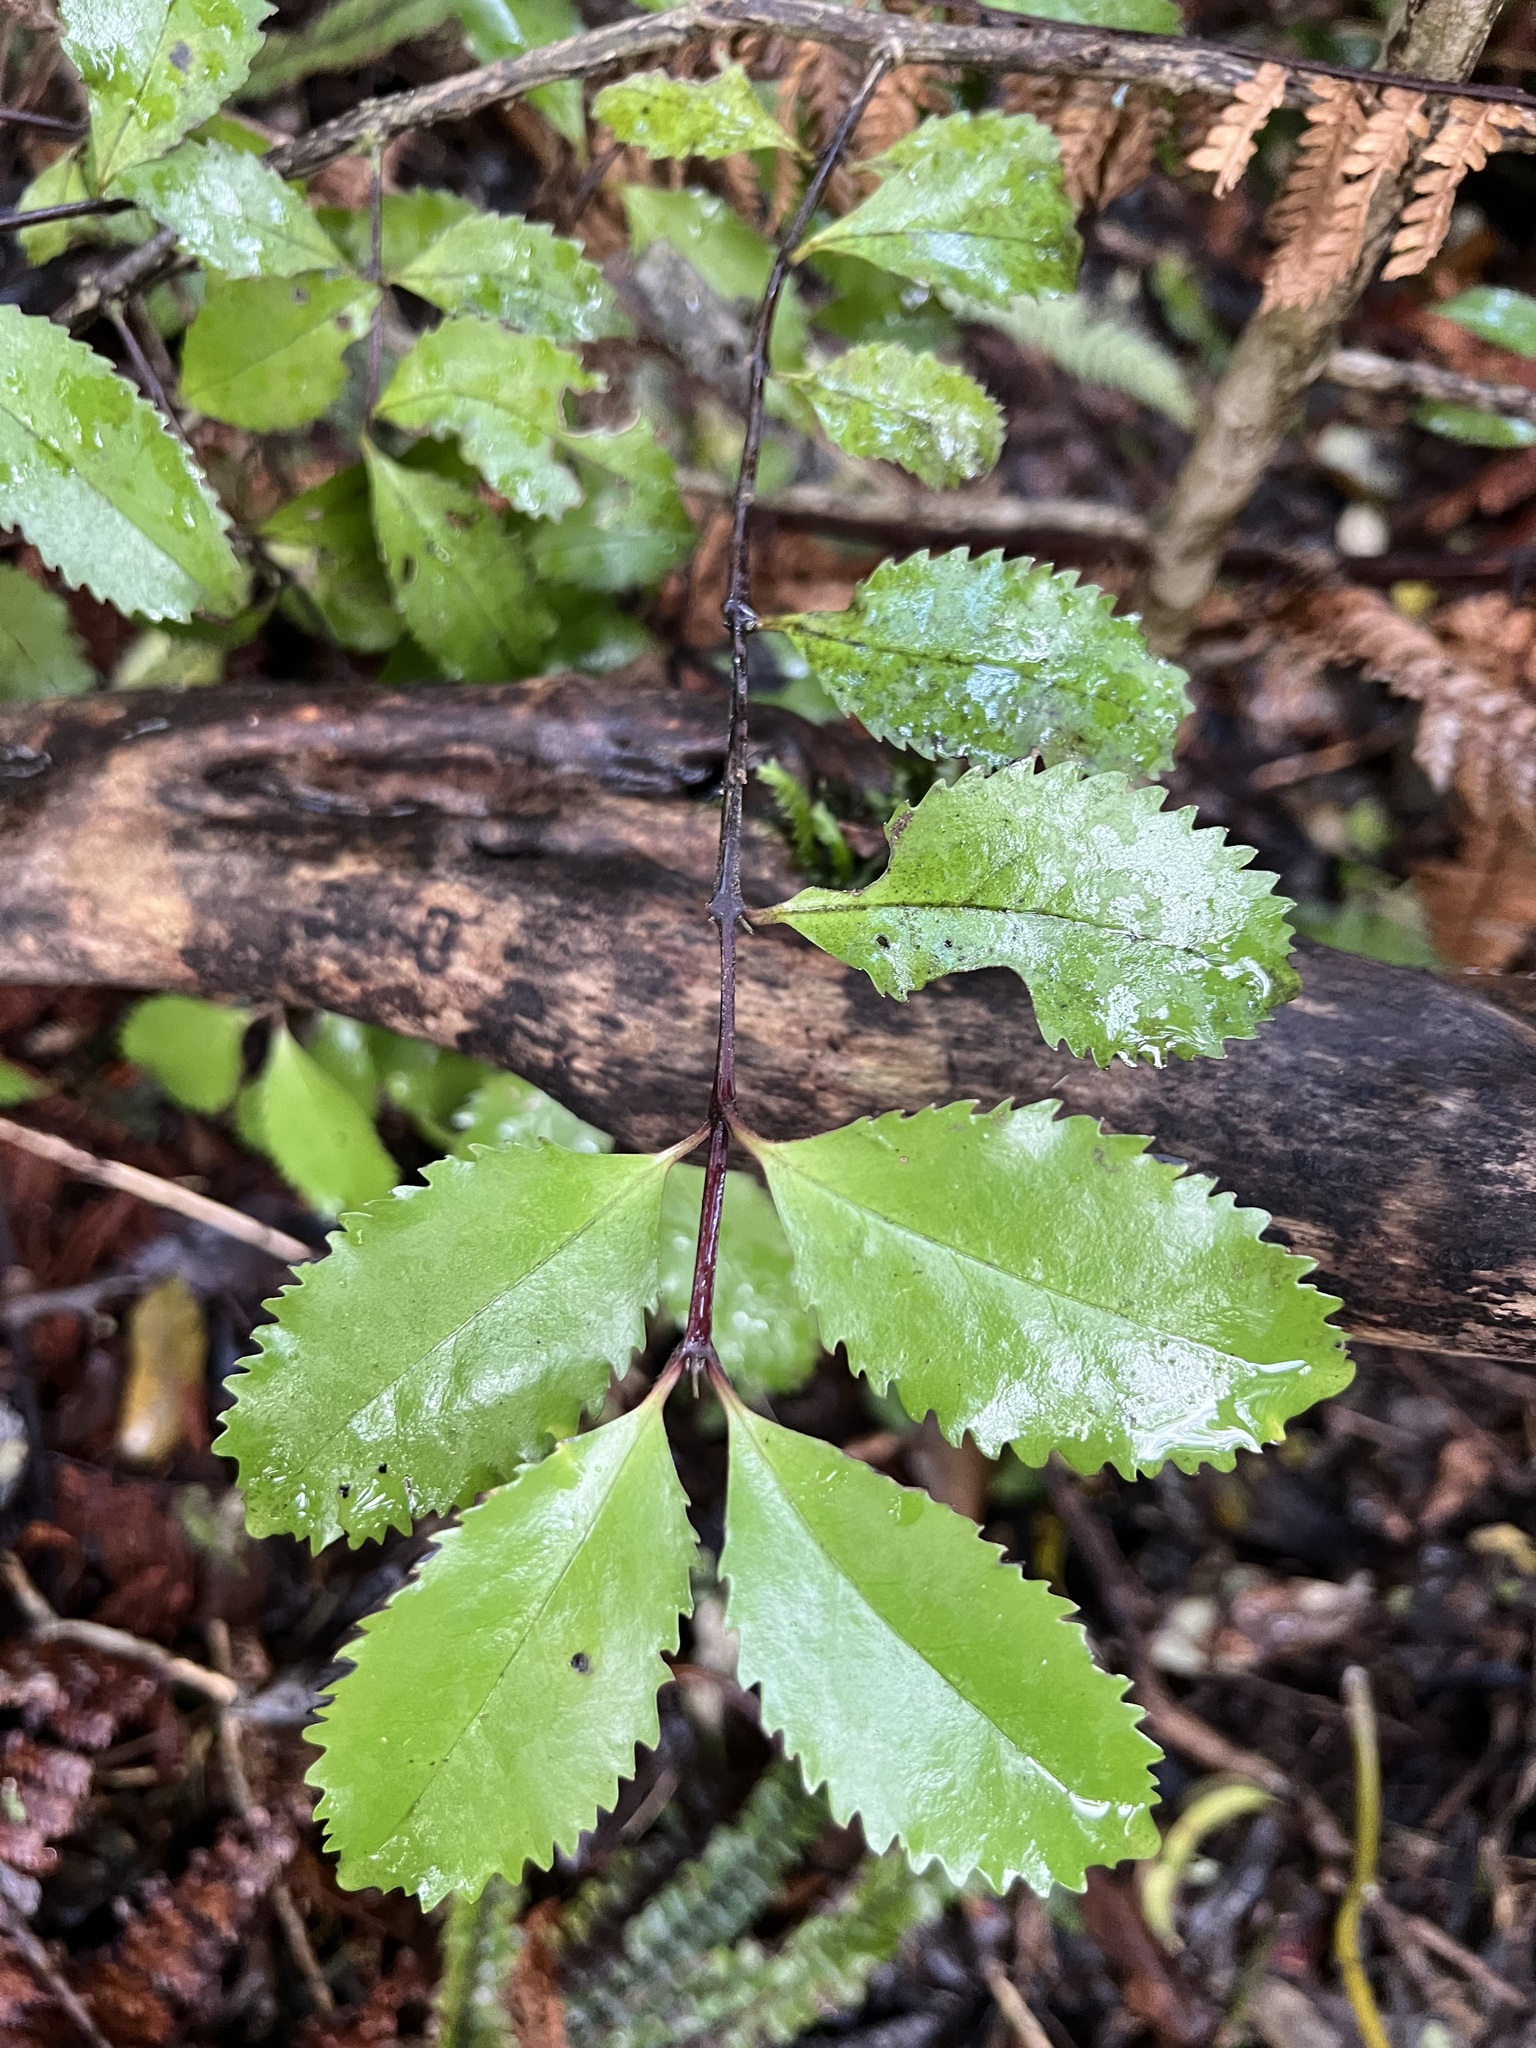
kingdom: Plantae
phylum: Tracheophyta
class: Magnoliopsida
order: Laurales
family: Atherospermataceae
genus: Laurelia
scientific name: Laurelia novae-zelandiae
